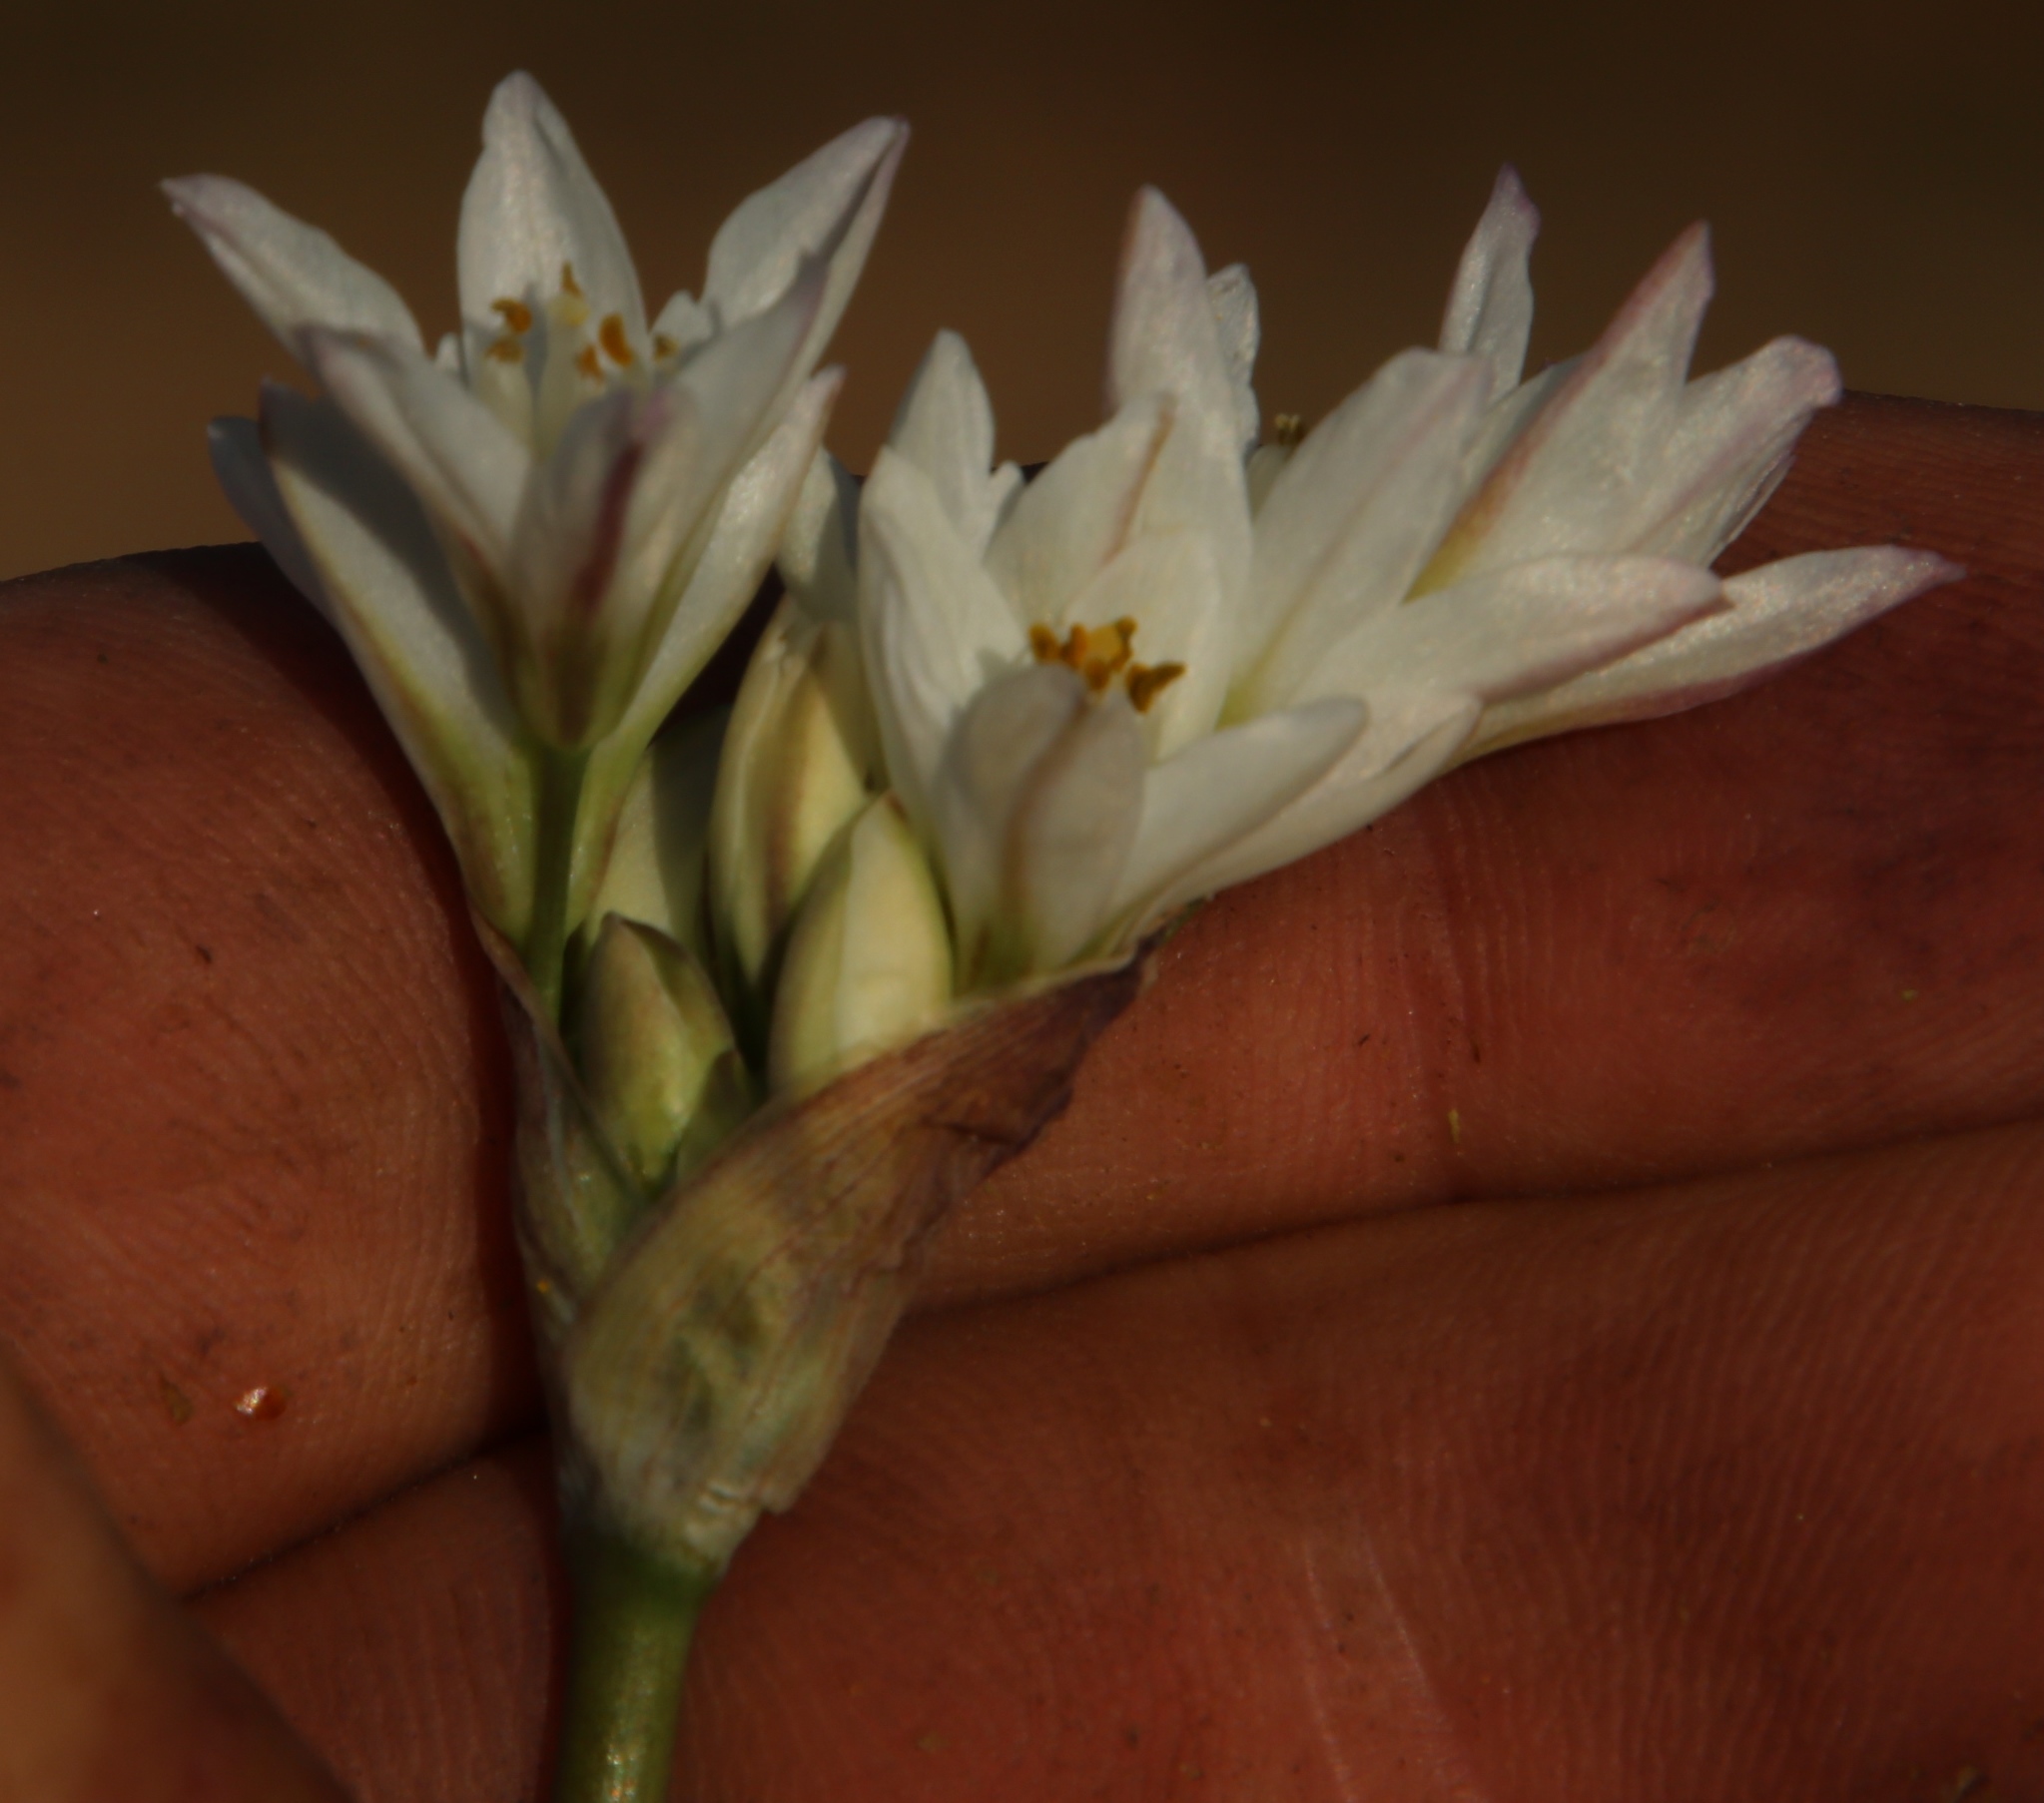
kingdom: Plantae
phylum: Tracheophyta
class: Liliopsida
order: Asparagales
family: Amaryllidaceae
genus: Nothoscordum
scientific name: Nothoscordum gracile
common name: Slender false garlic
